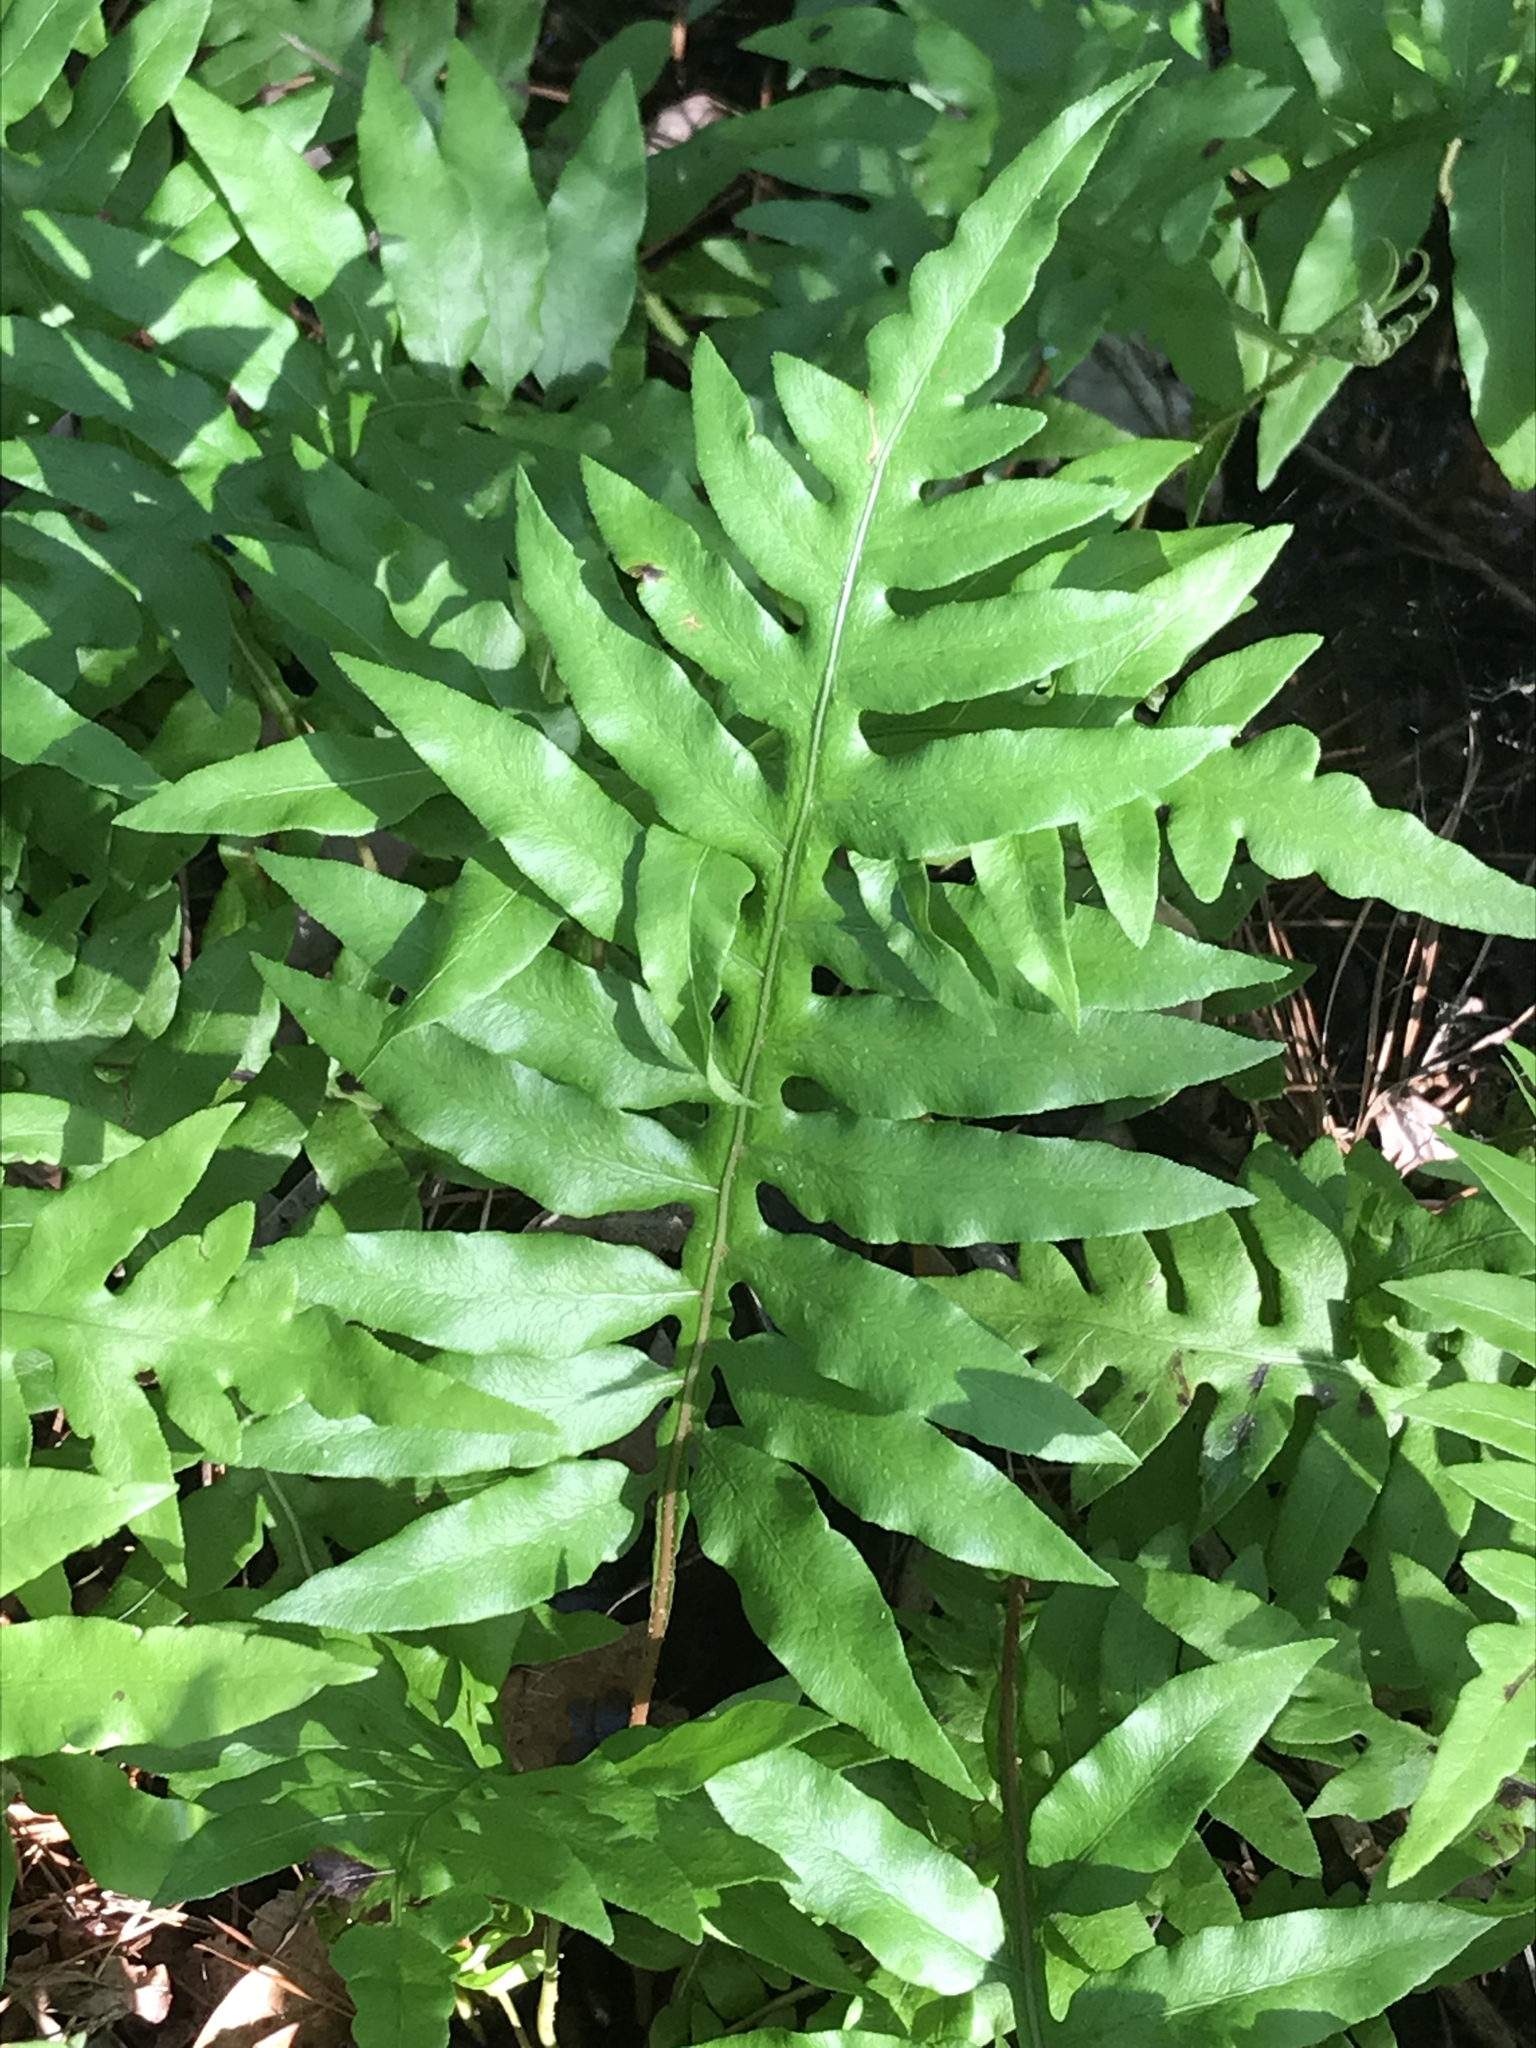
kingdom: Plantae
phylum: Tracheophyta
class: Polypodiopsida
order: Polypodiales
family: Blechnaceae
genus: Lorinseria
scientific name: Lorinseria areolata
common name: Dwarf chain fern
